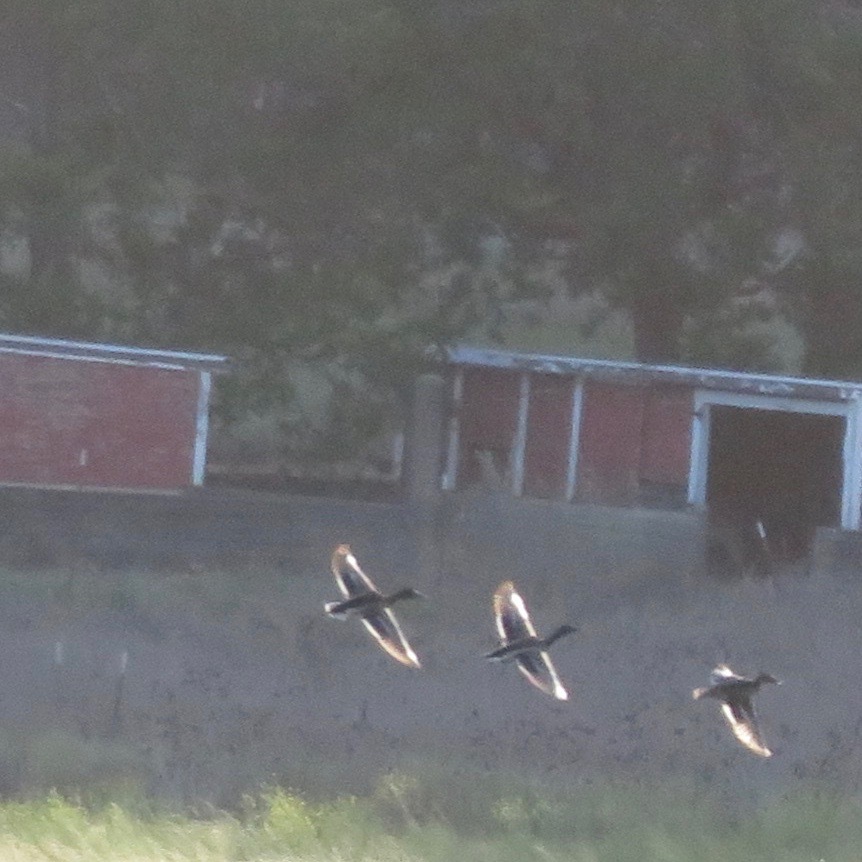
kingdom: Animalia
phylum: Chordata
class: Aves
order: Anseriformes
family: Anatidae
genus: Anas
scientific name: Anas platyrhynchos
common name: Mallard
